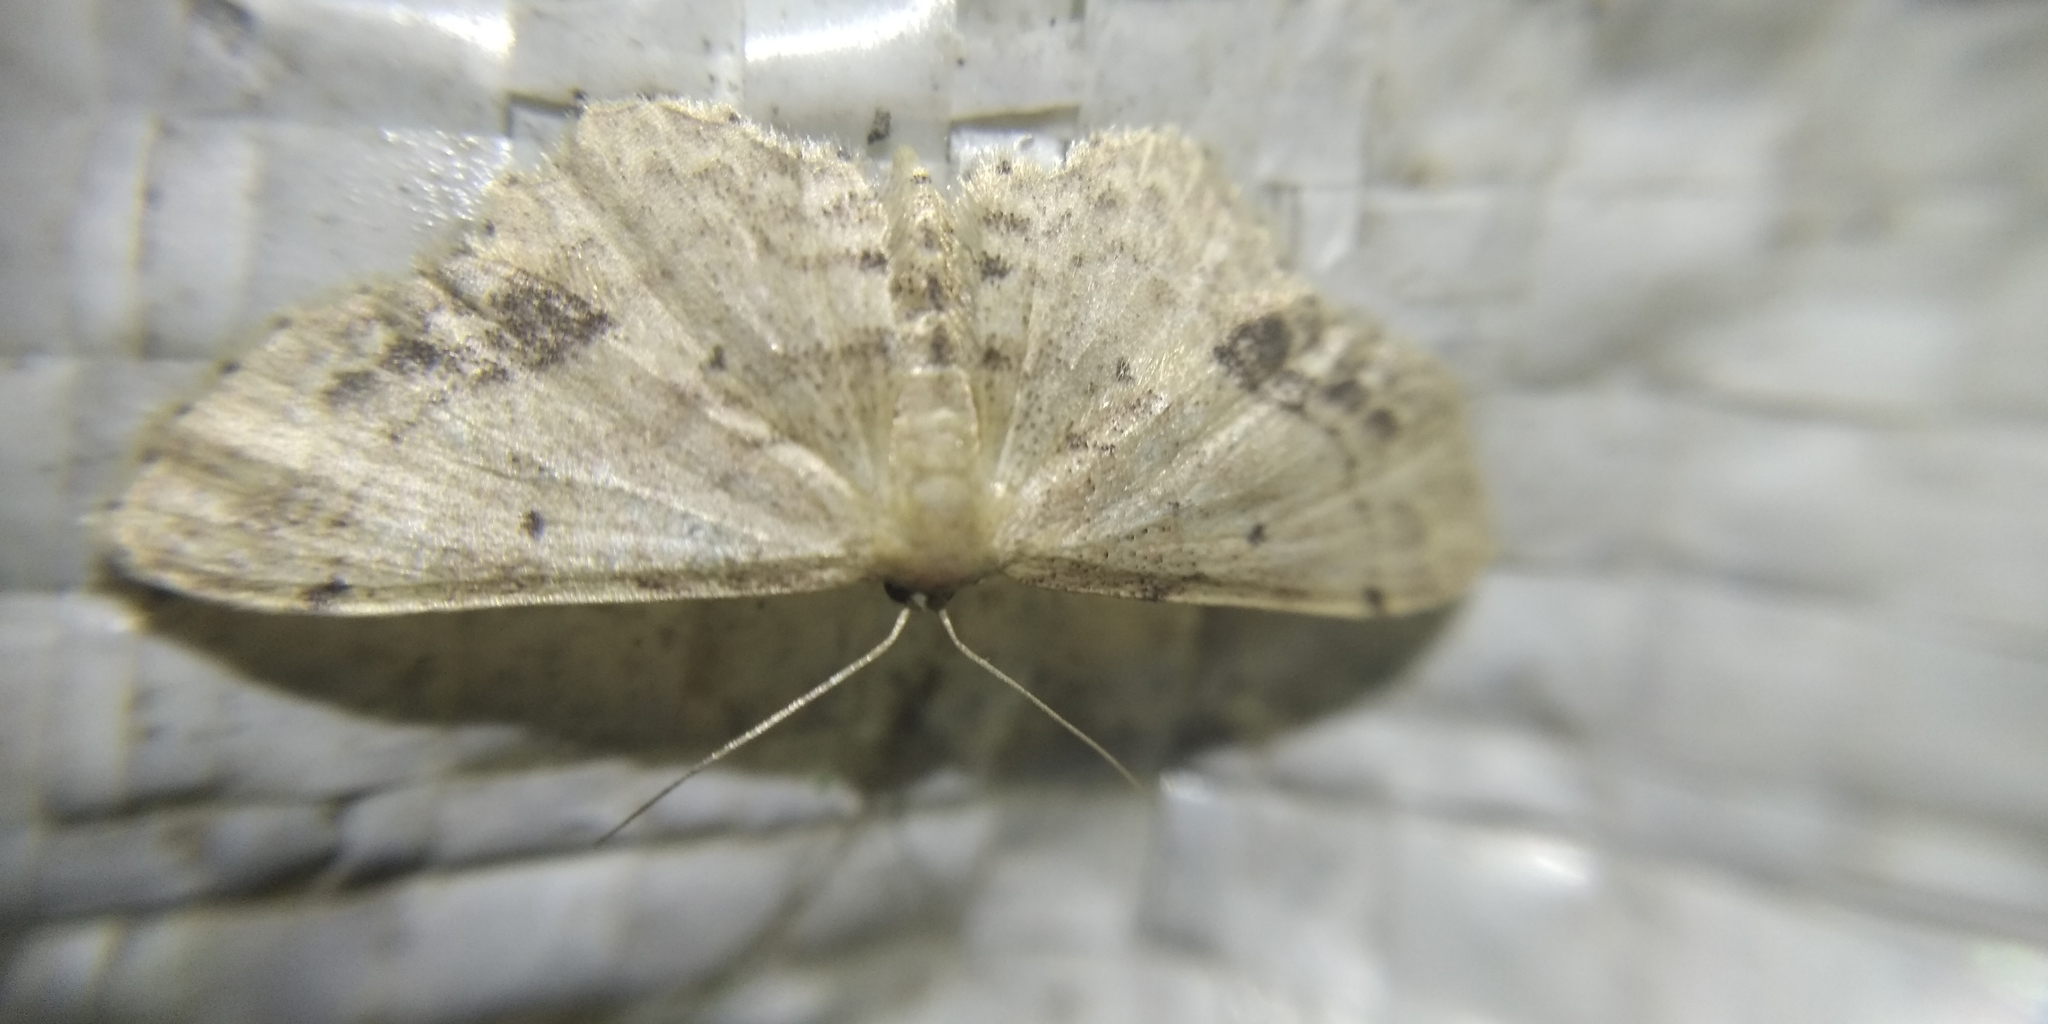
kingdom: Animalia
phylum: Arthropoda
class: Insecta
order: Lepidoptera
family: Geometridae
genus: Idaea
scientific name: Idaea dimidiata
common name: Single-dotted wave
